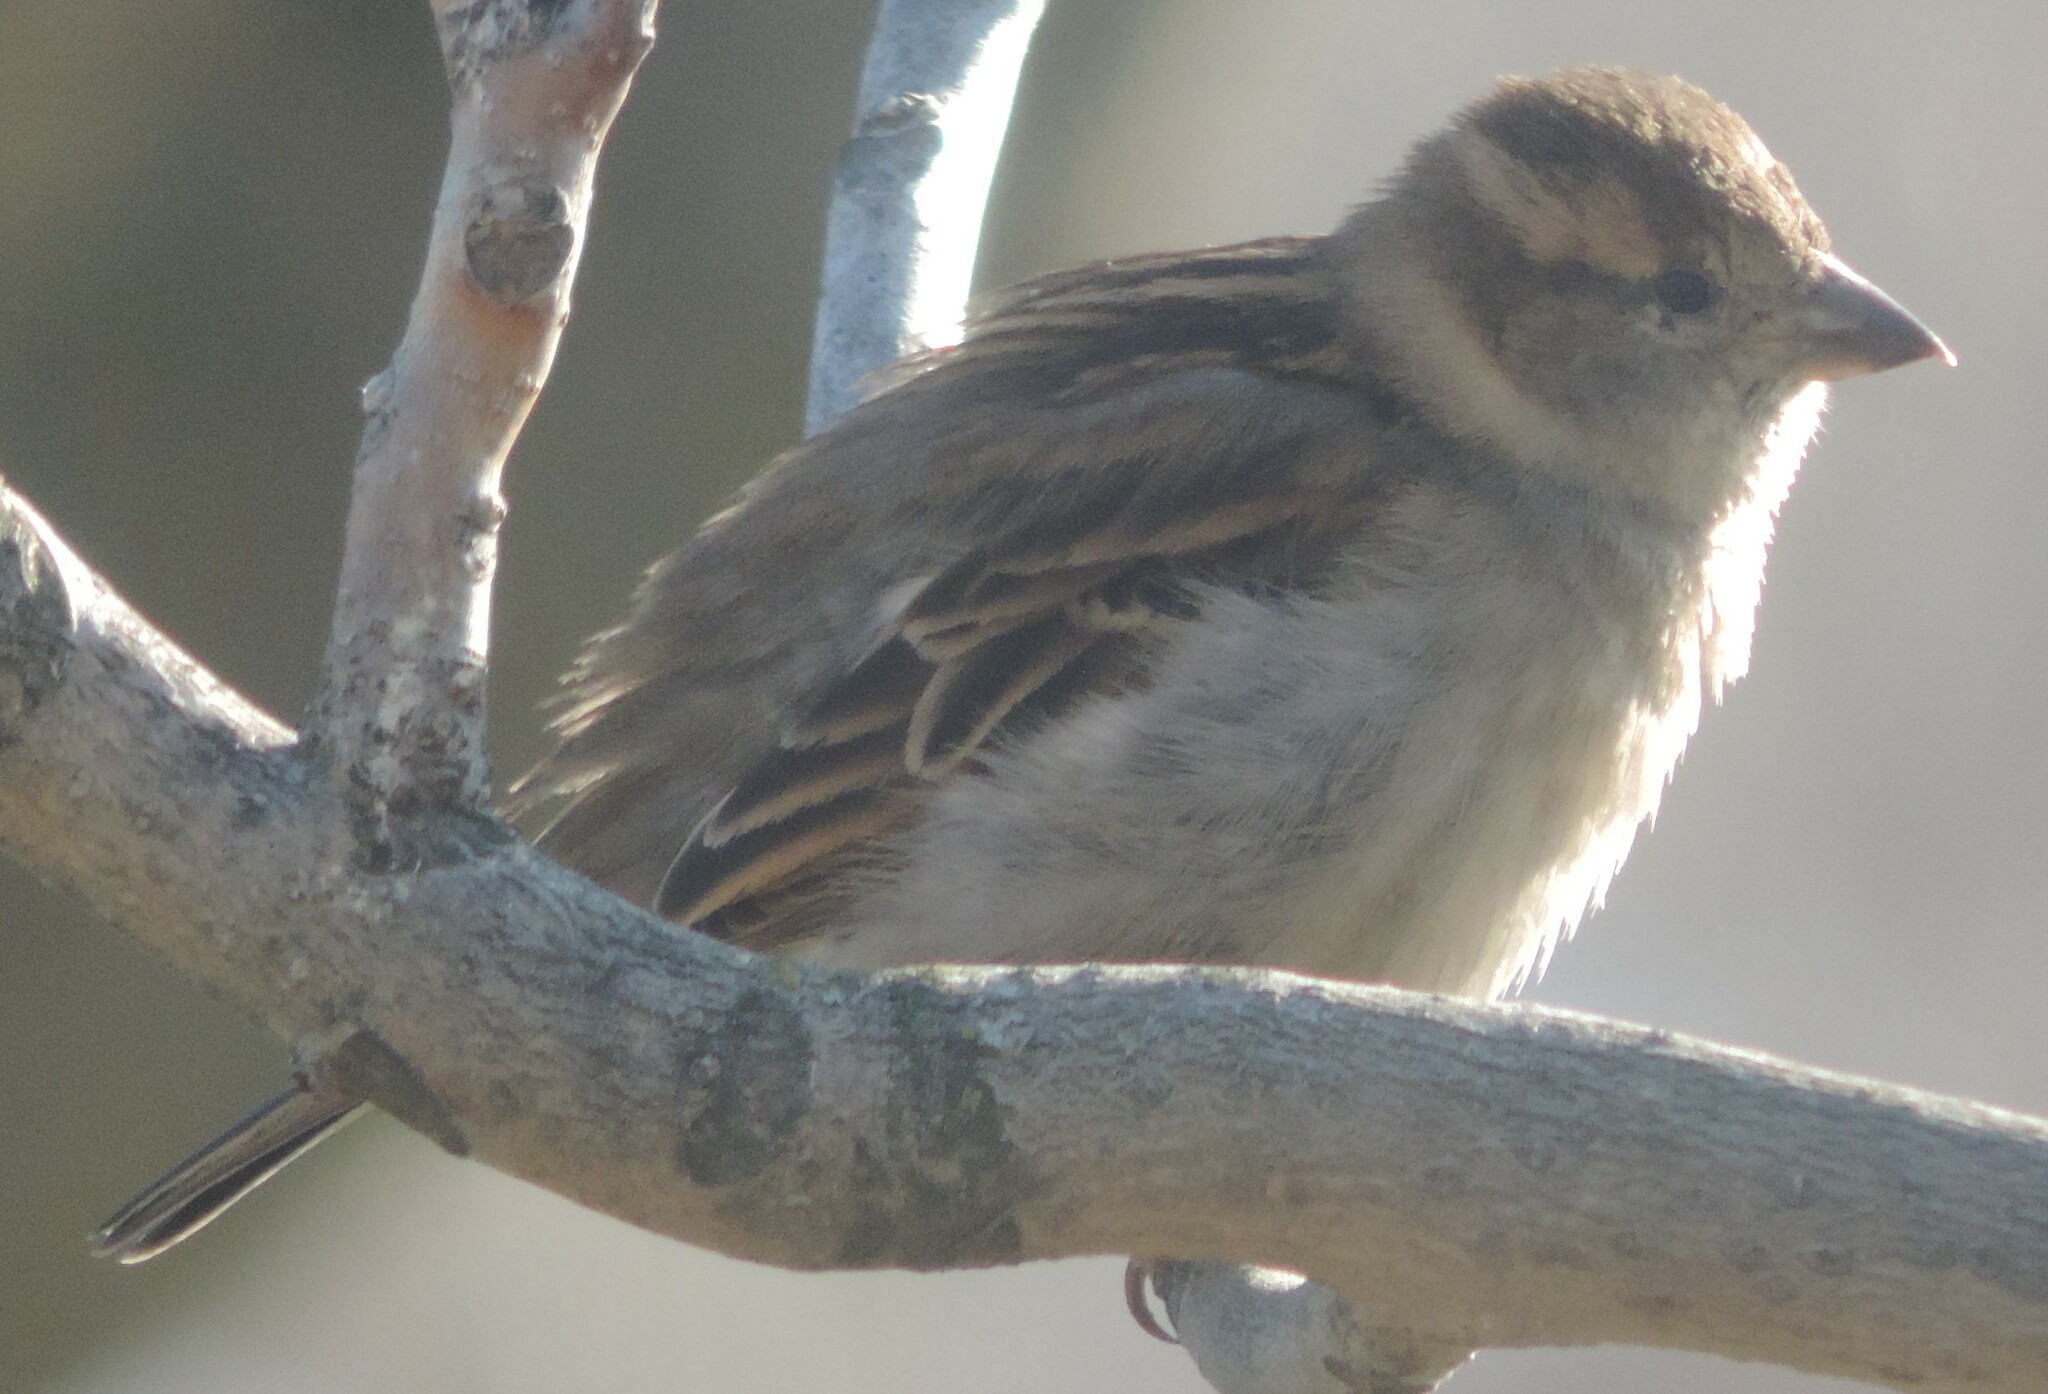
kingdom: Animalia
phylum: Chordata
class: Aves
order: Passeriformes
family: Passeridae
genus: Passer
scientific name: Passer domesticus
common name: House sparrow
